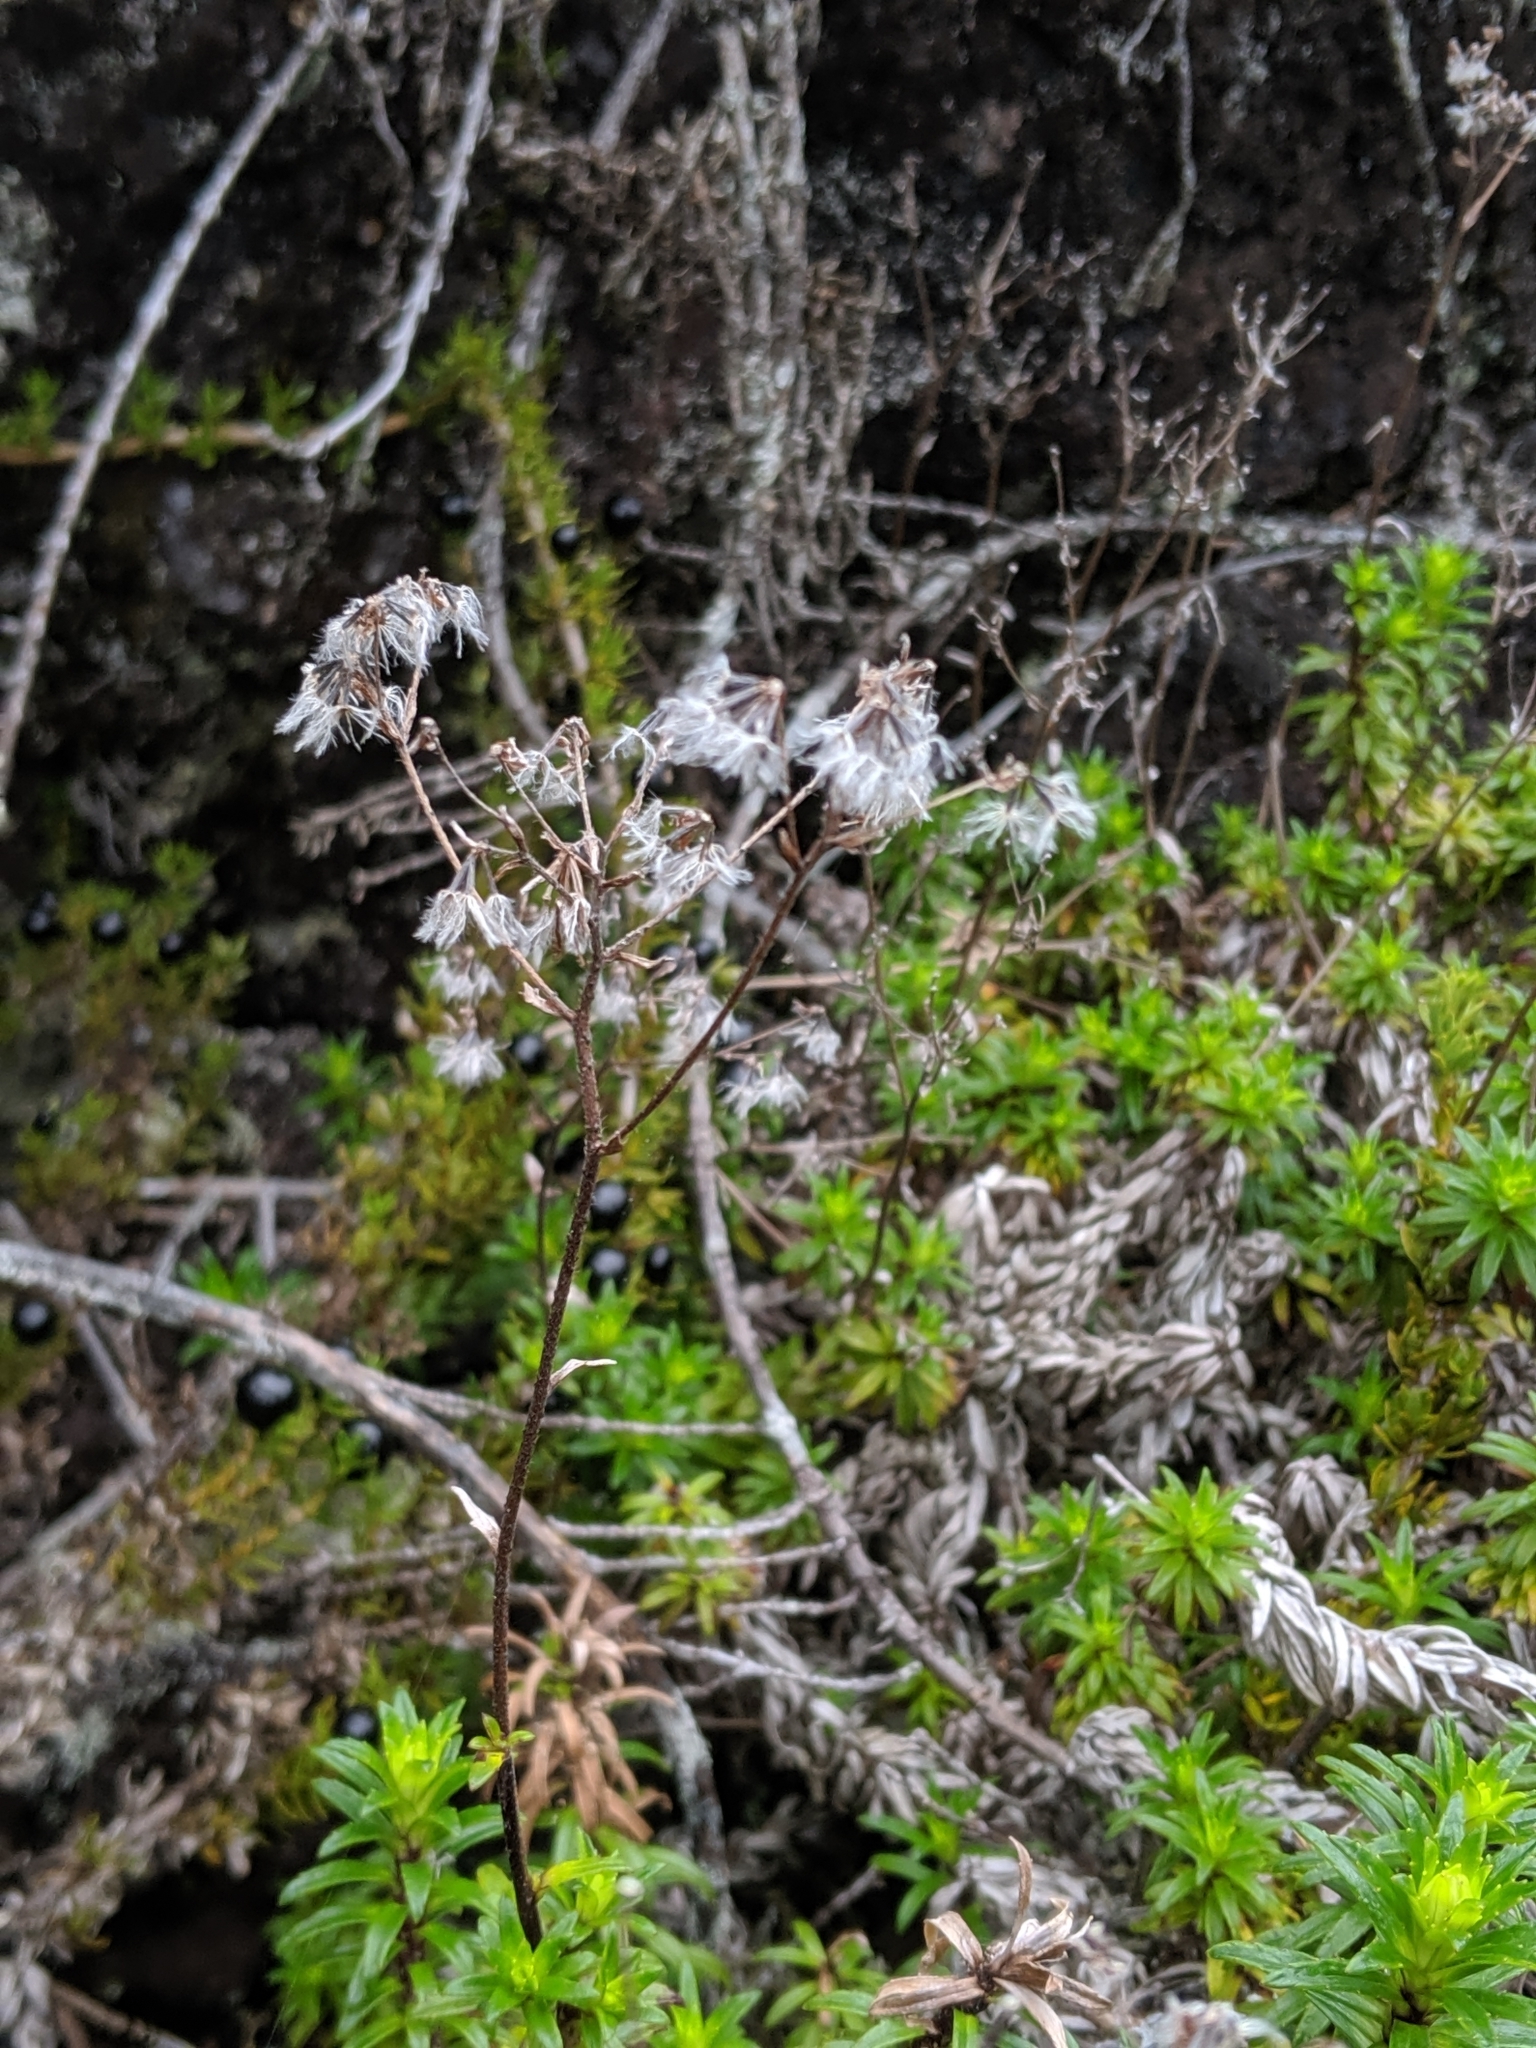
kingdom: Plantae
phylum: Tracheophyta
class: Magnoliopsida
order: Asterales
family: Asteraceae
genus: Dubautia
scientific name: Dubautia scabra
